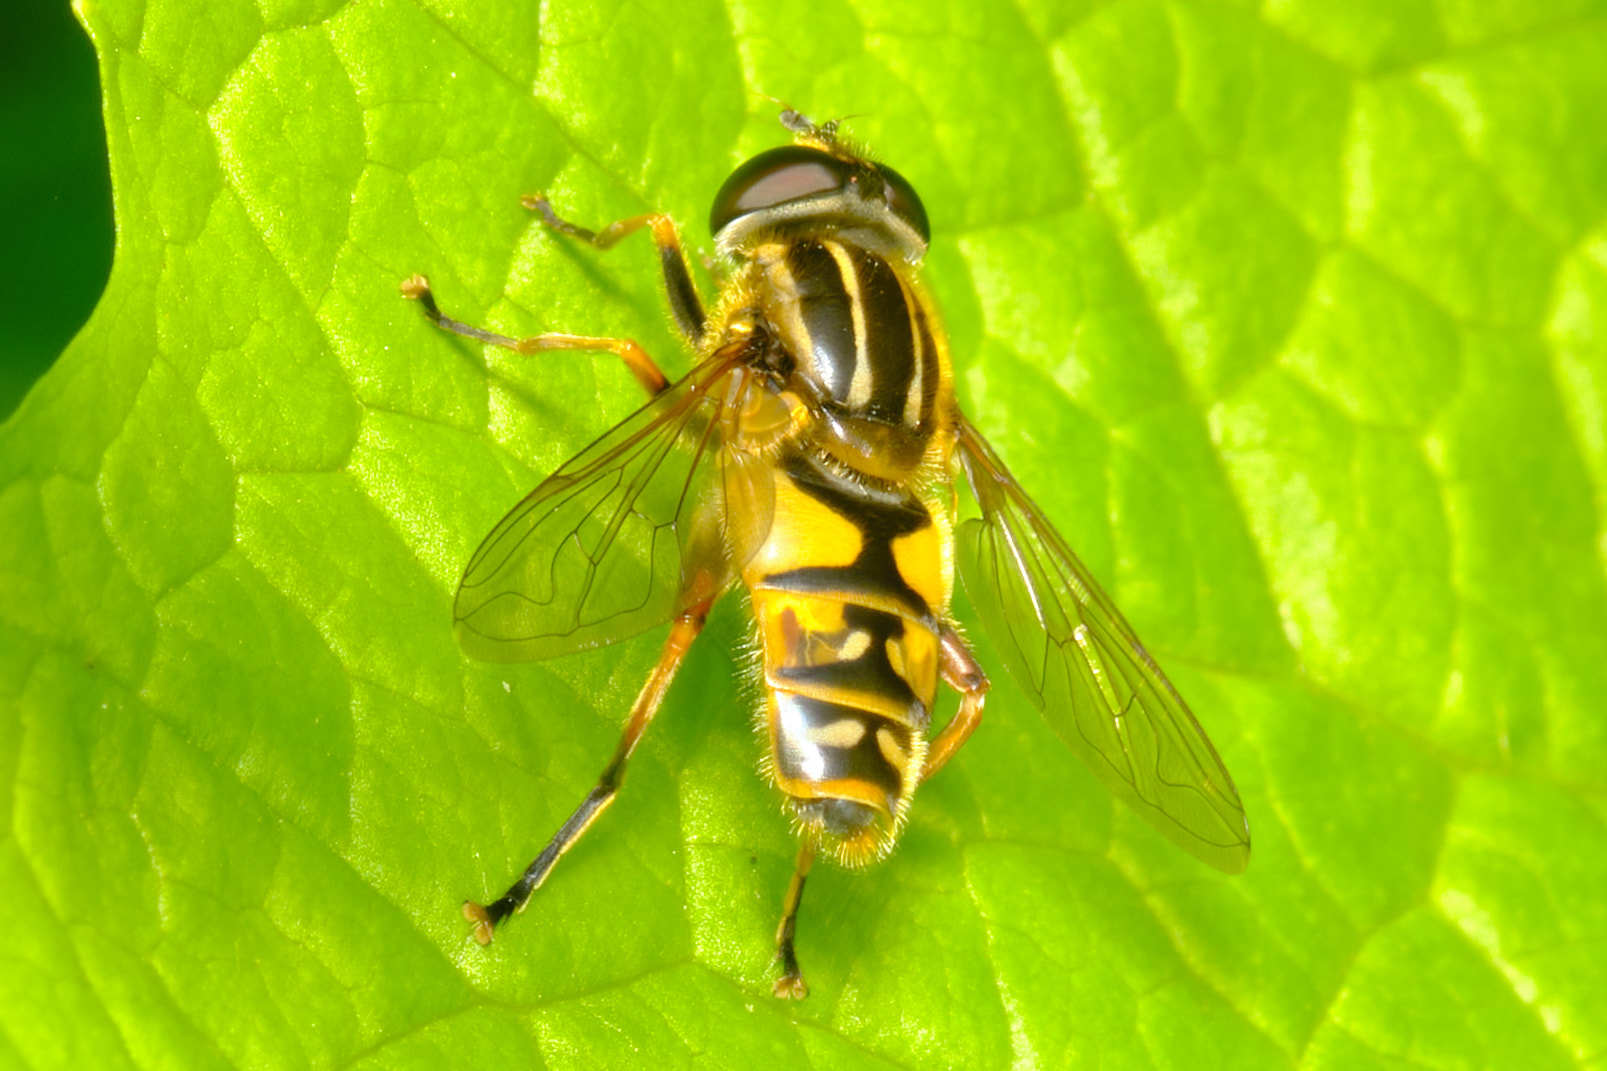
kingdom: Animalia
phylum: Arthropoda
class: Insecta
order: Diptera
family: Syrphidae
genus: Helophilus
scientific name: Helophilus pendulus
